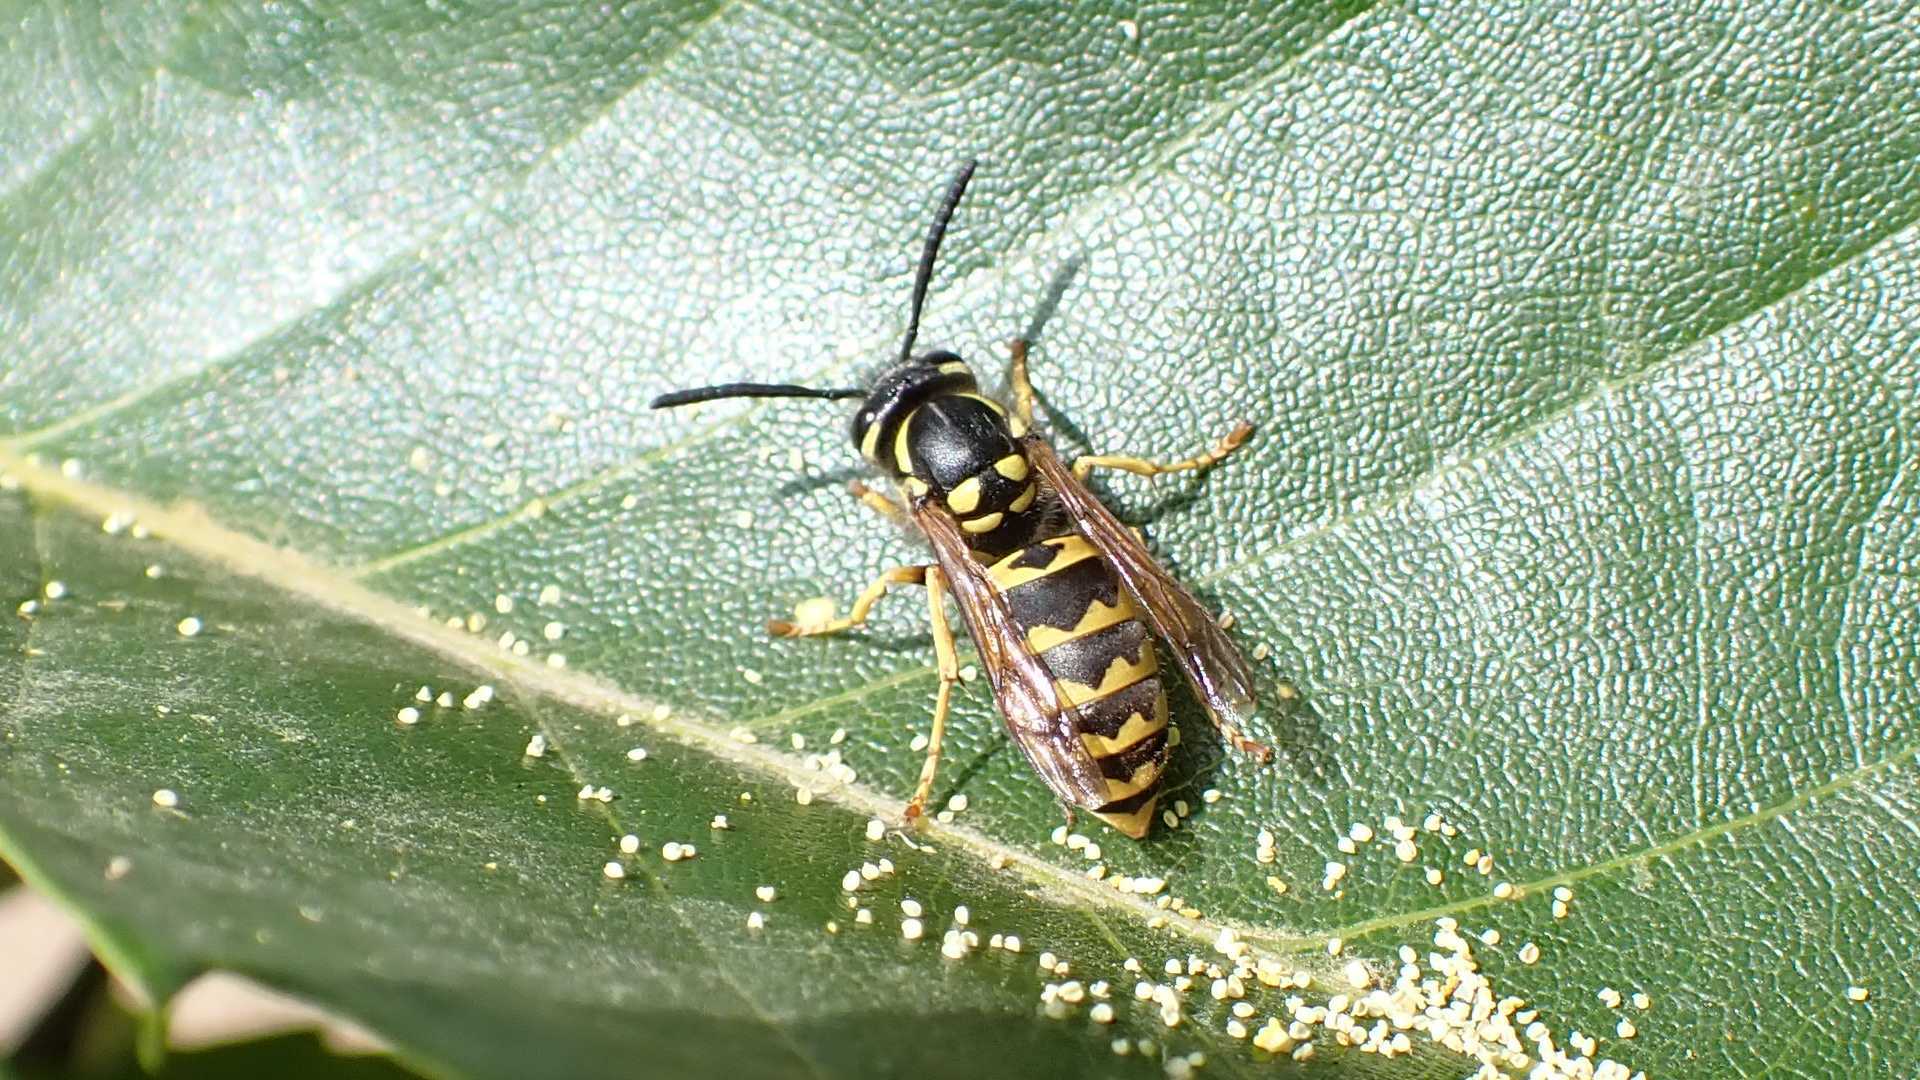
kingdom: Animalia
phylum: Arthropoda
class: Insecta
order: Hymenoptera
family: Vespidae
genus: Vespula
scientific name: Vespula germanica
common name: German wasp
